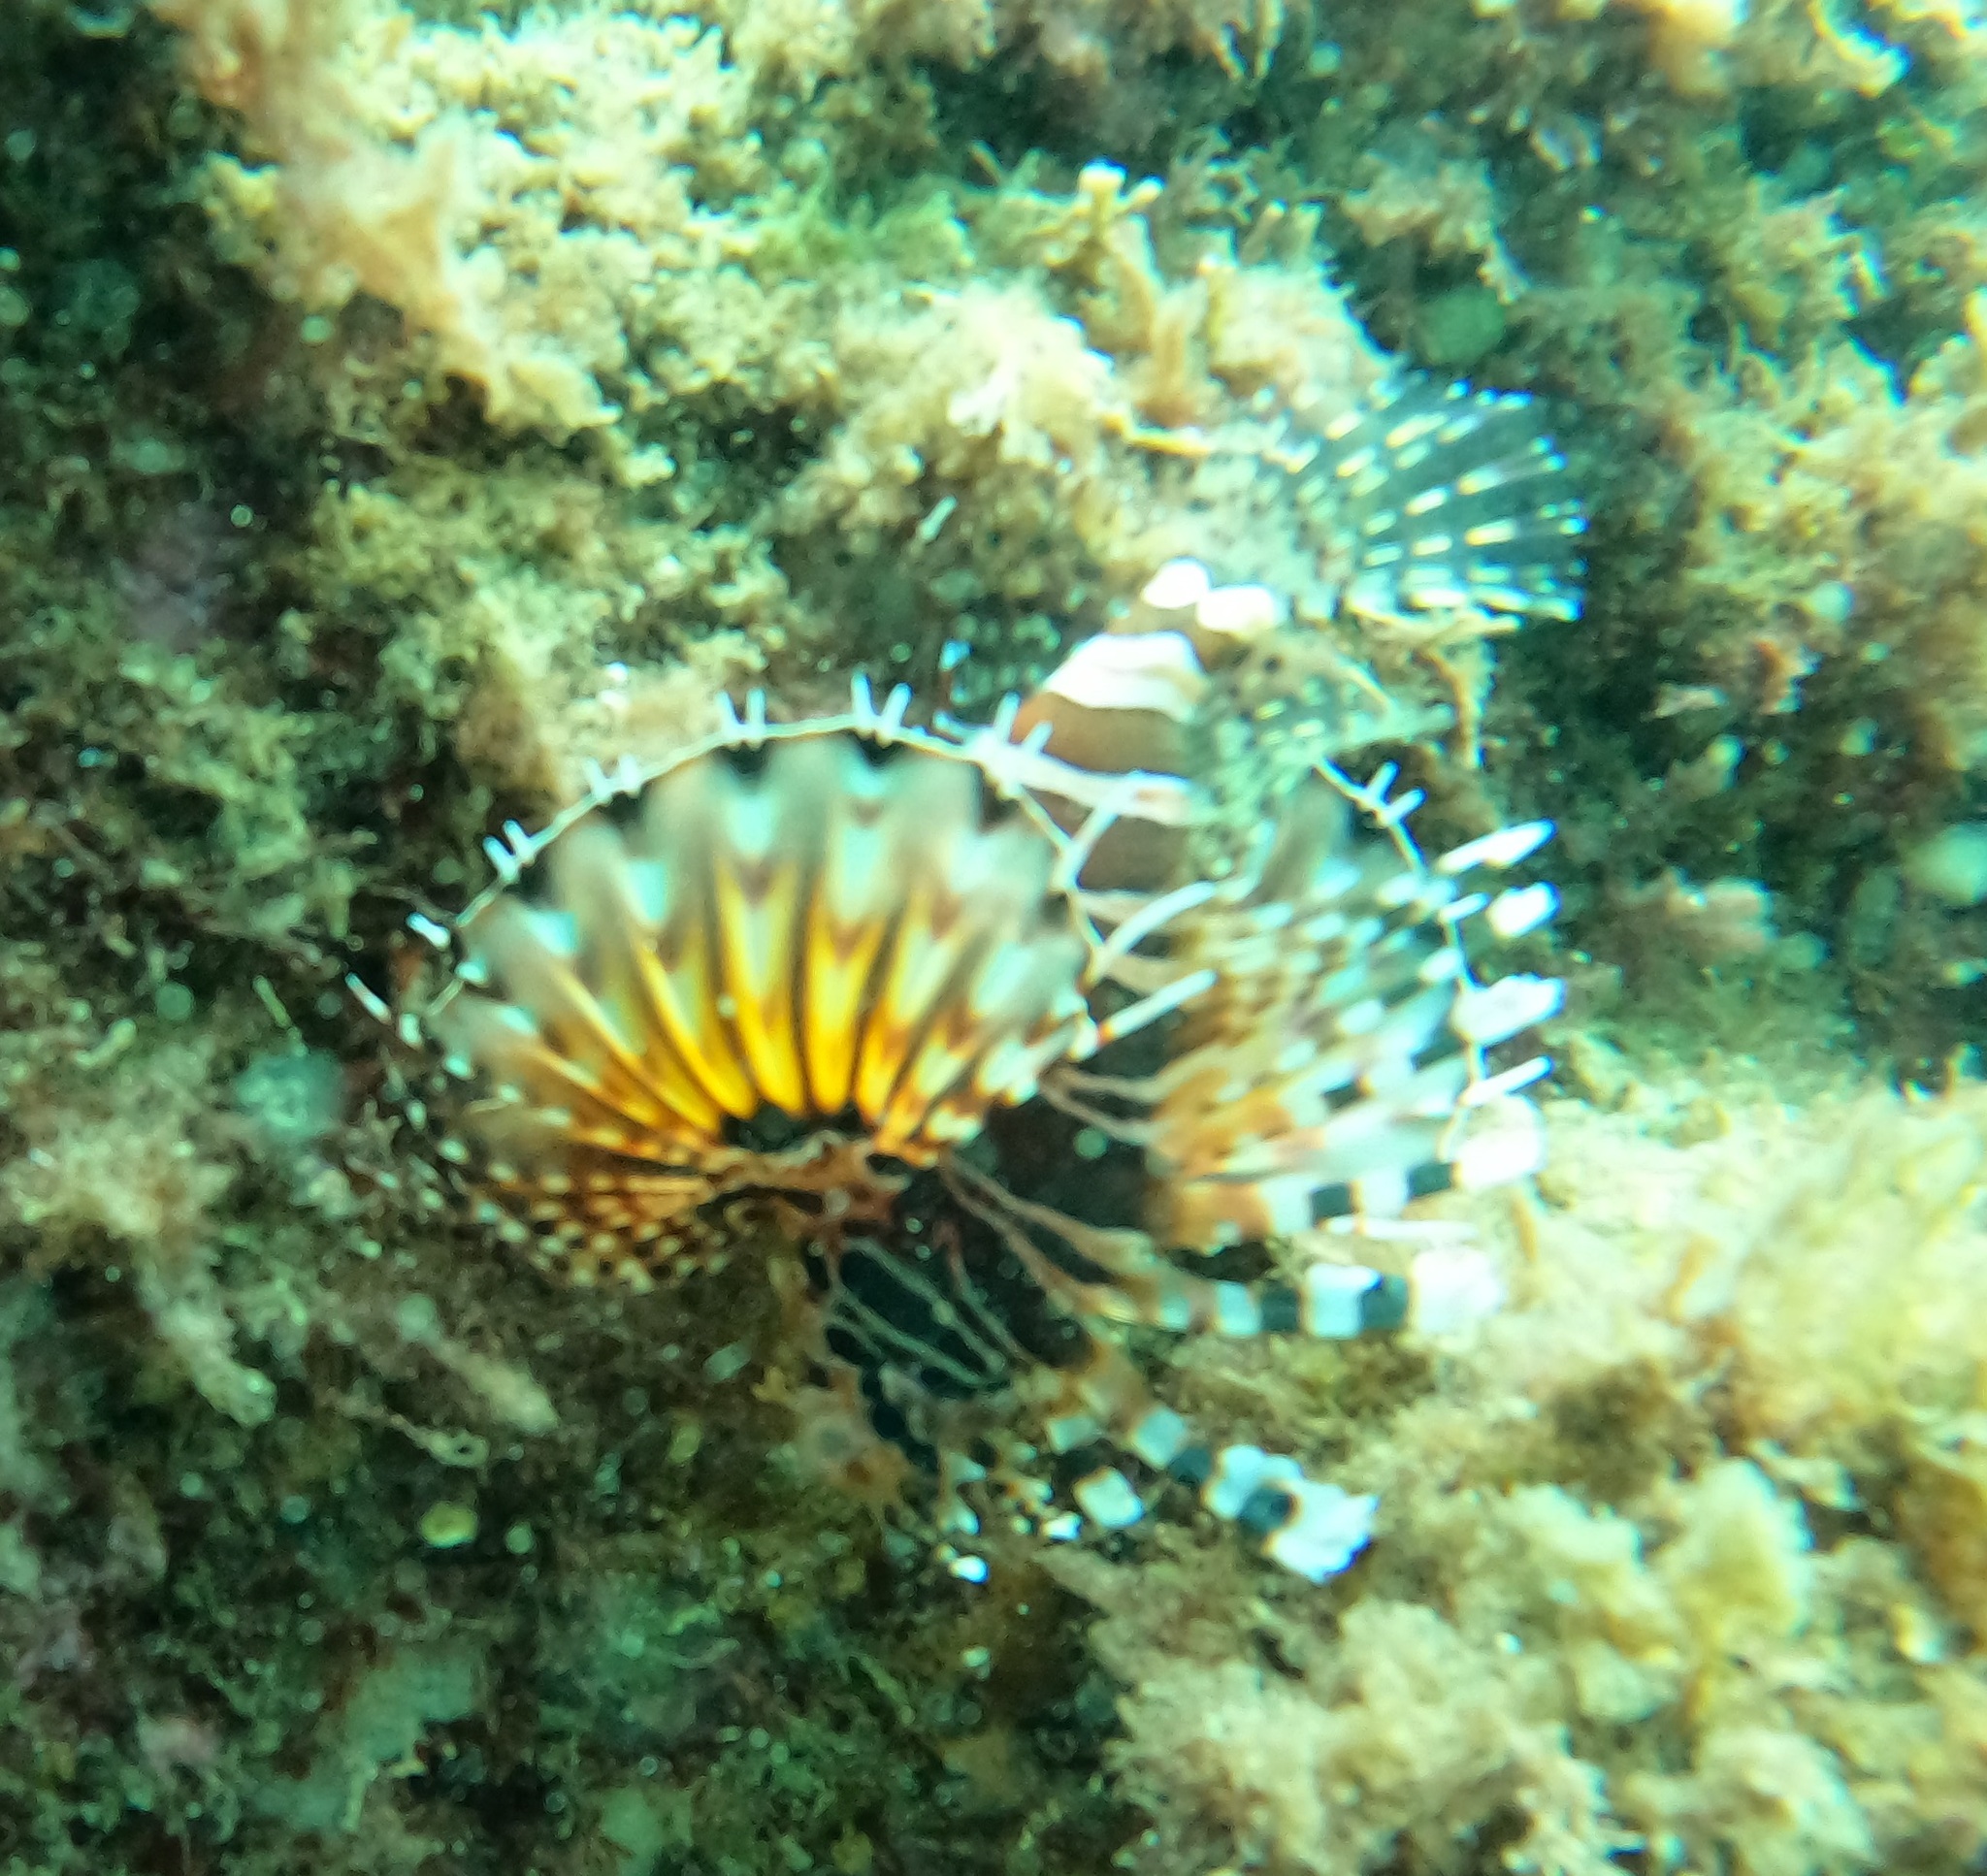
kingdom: Animalia
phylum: Chordata
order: Scorpaeniformes
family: Scorpaenidae
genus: Dendrochirus
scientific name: Dendrochirus zebra
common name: Zebra lionfish
